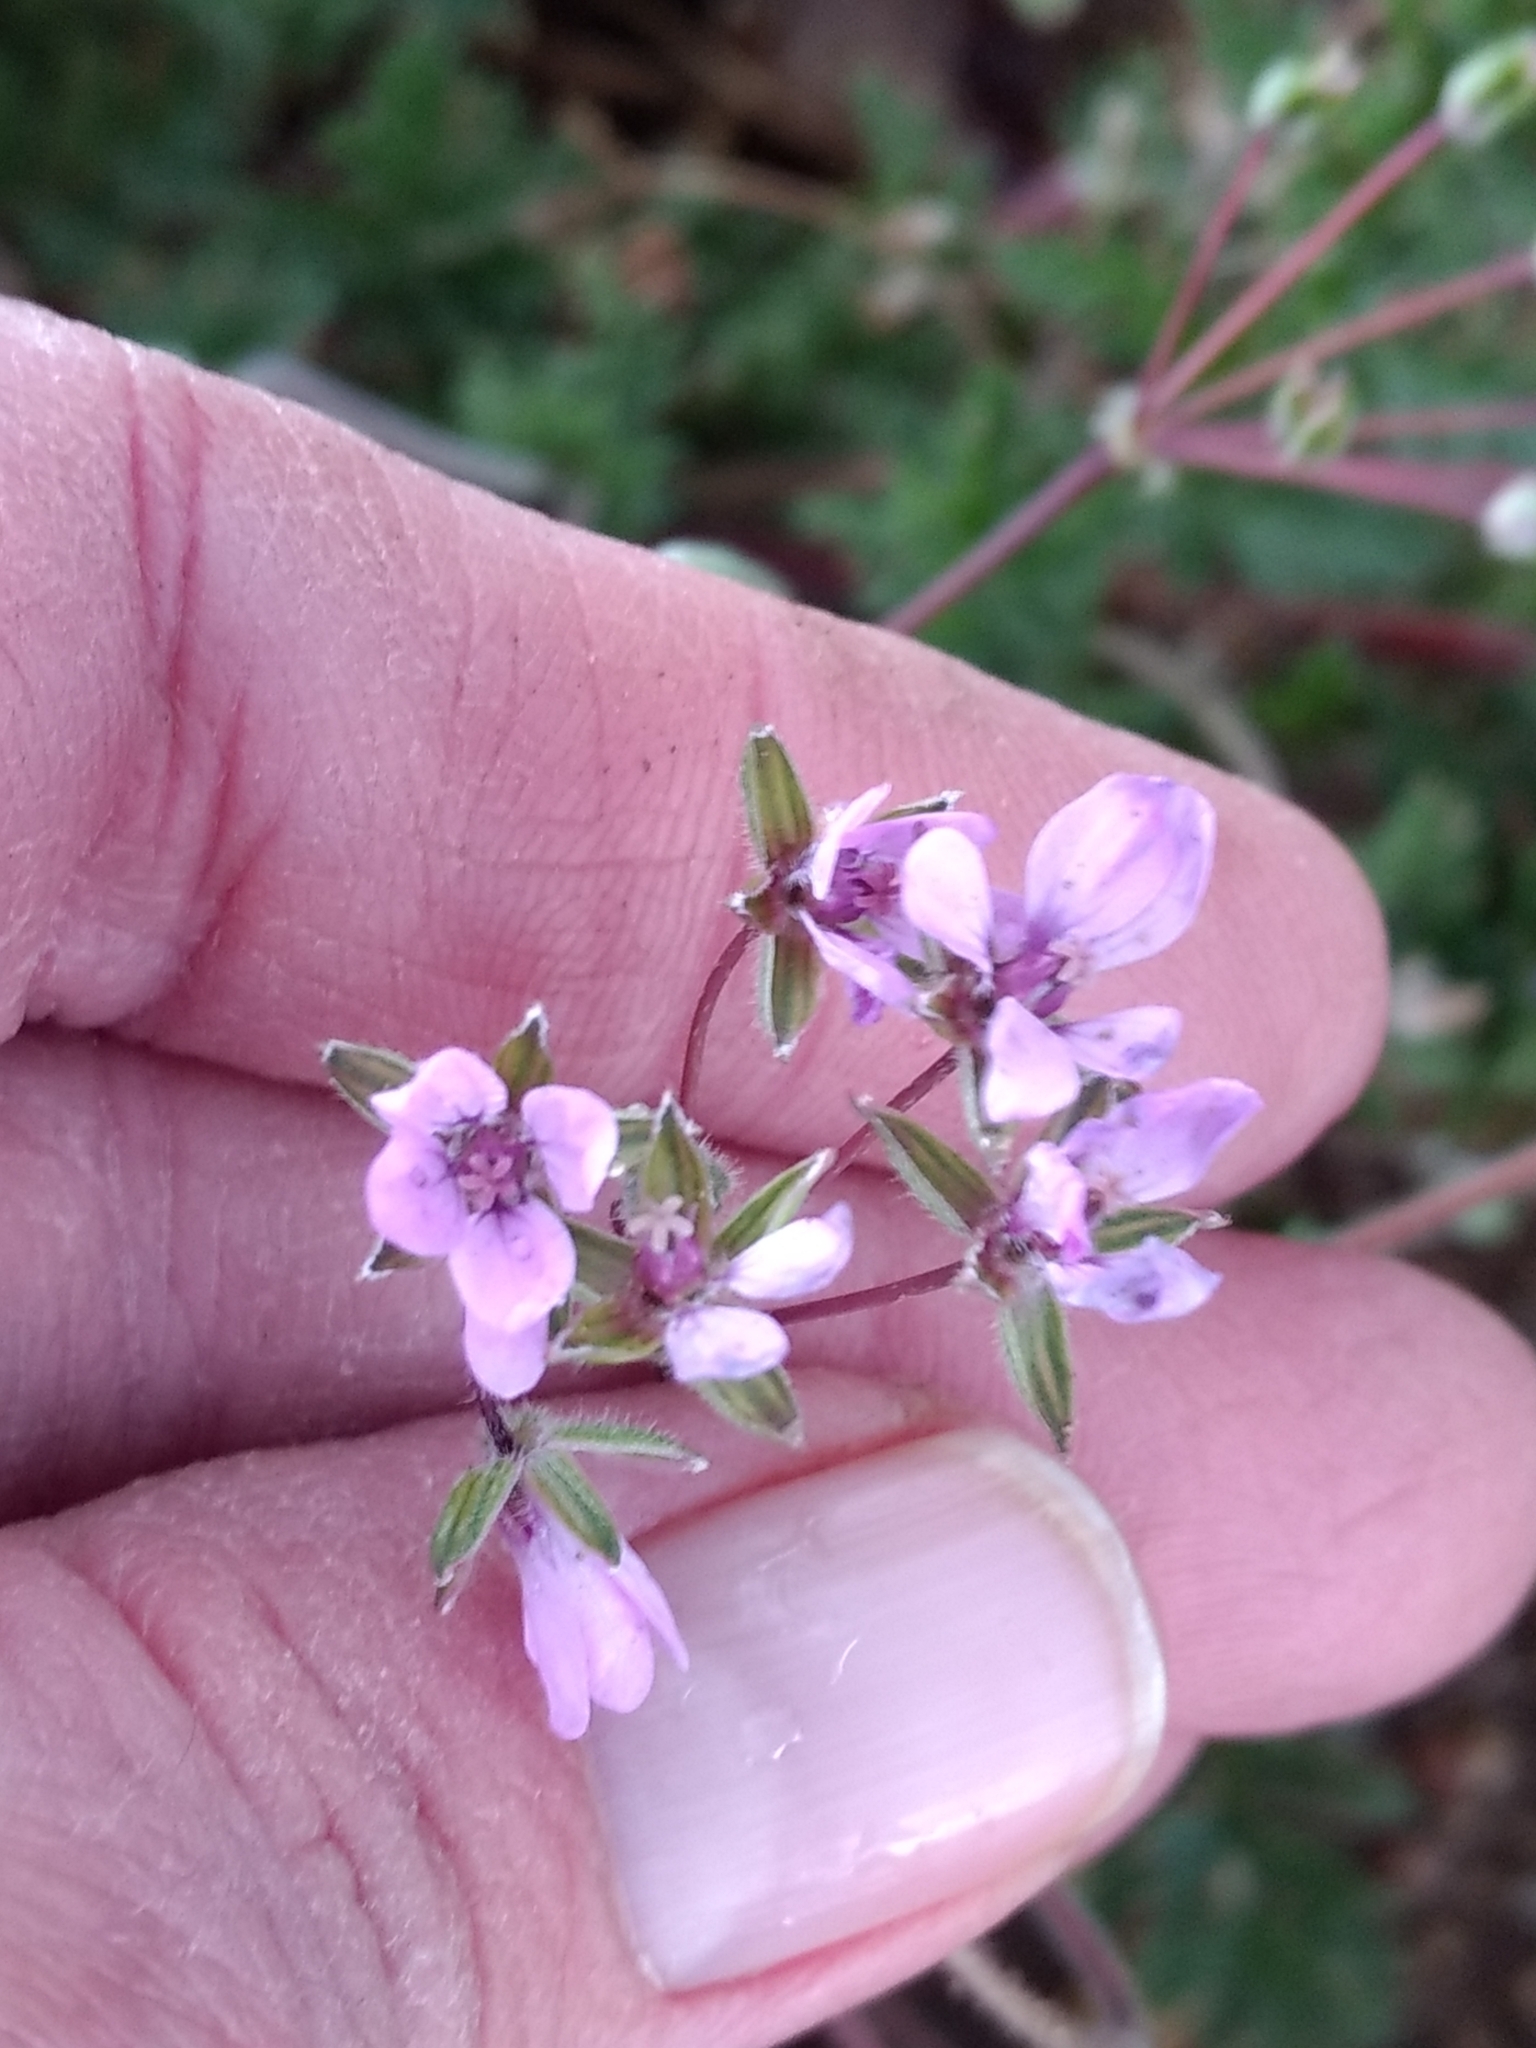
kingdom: Plantae
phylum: Tracheophyta
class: Magnoliopsida
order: Geraniales
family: Geraniaceae
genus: Erodium
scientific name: Erodium cicutarium
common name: Common stork's-bill
